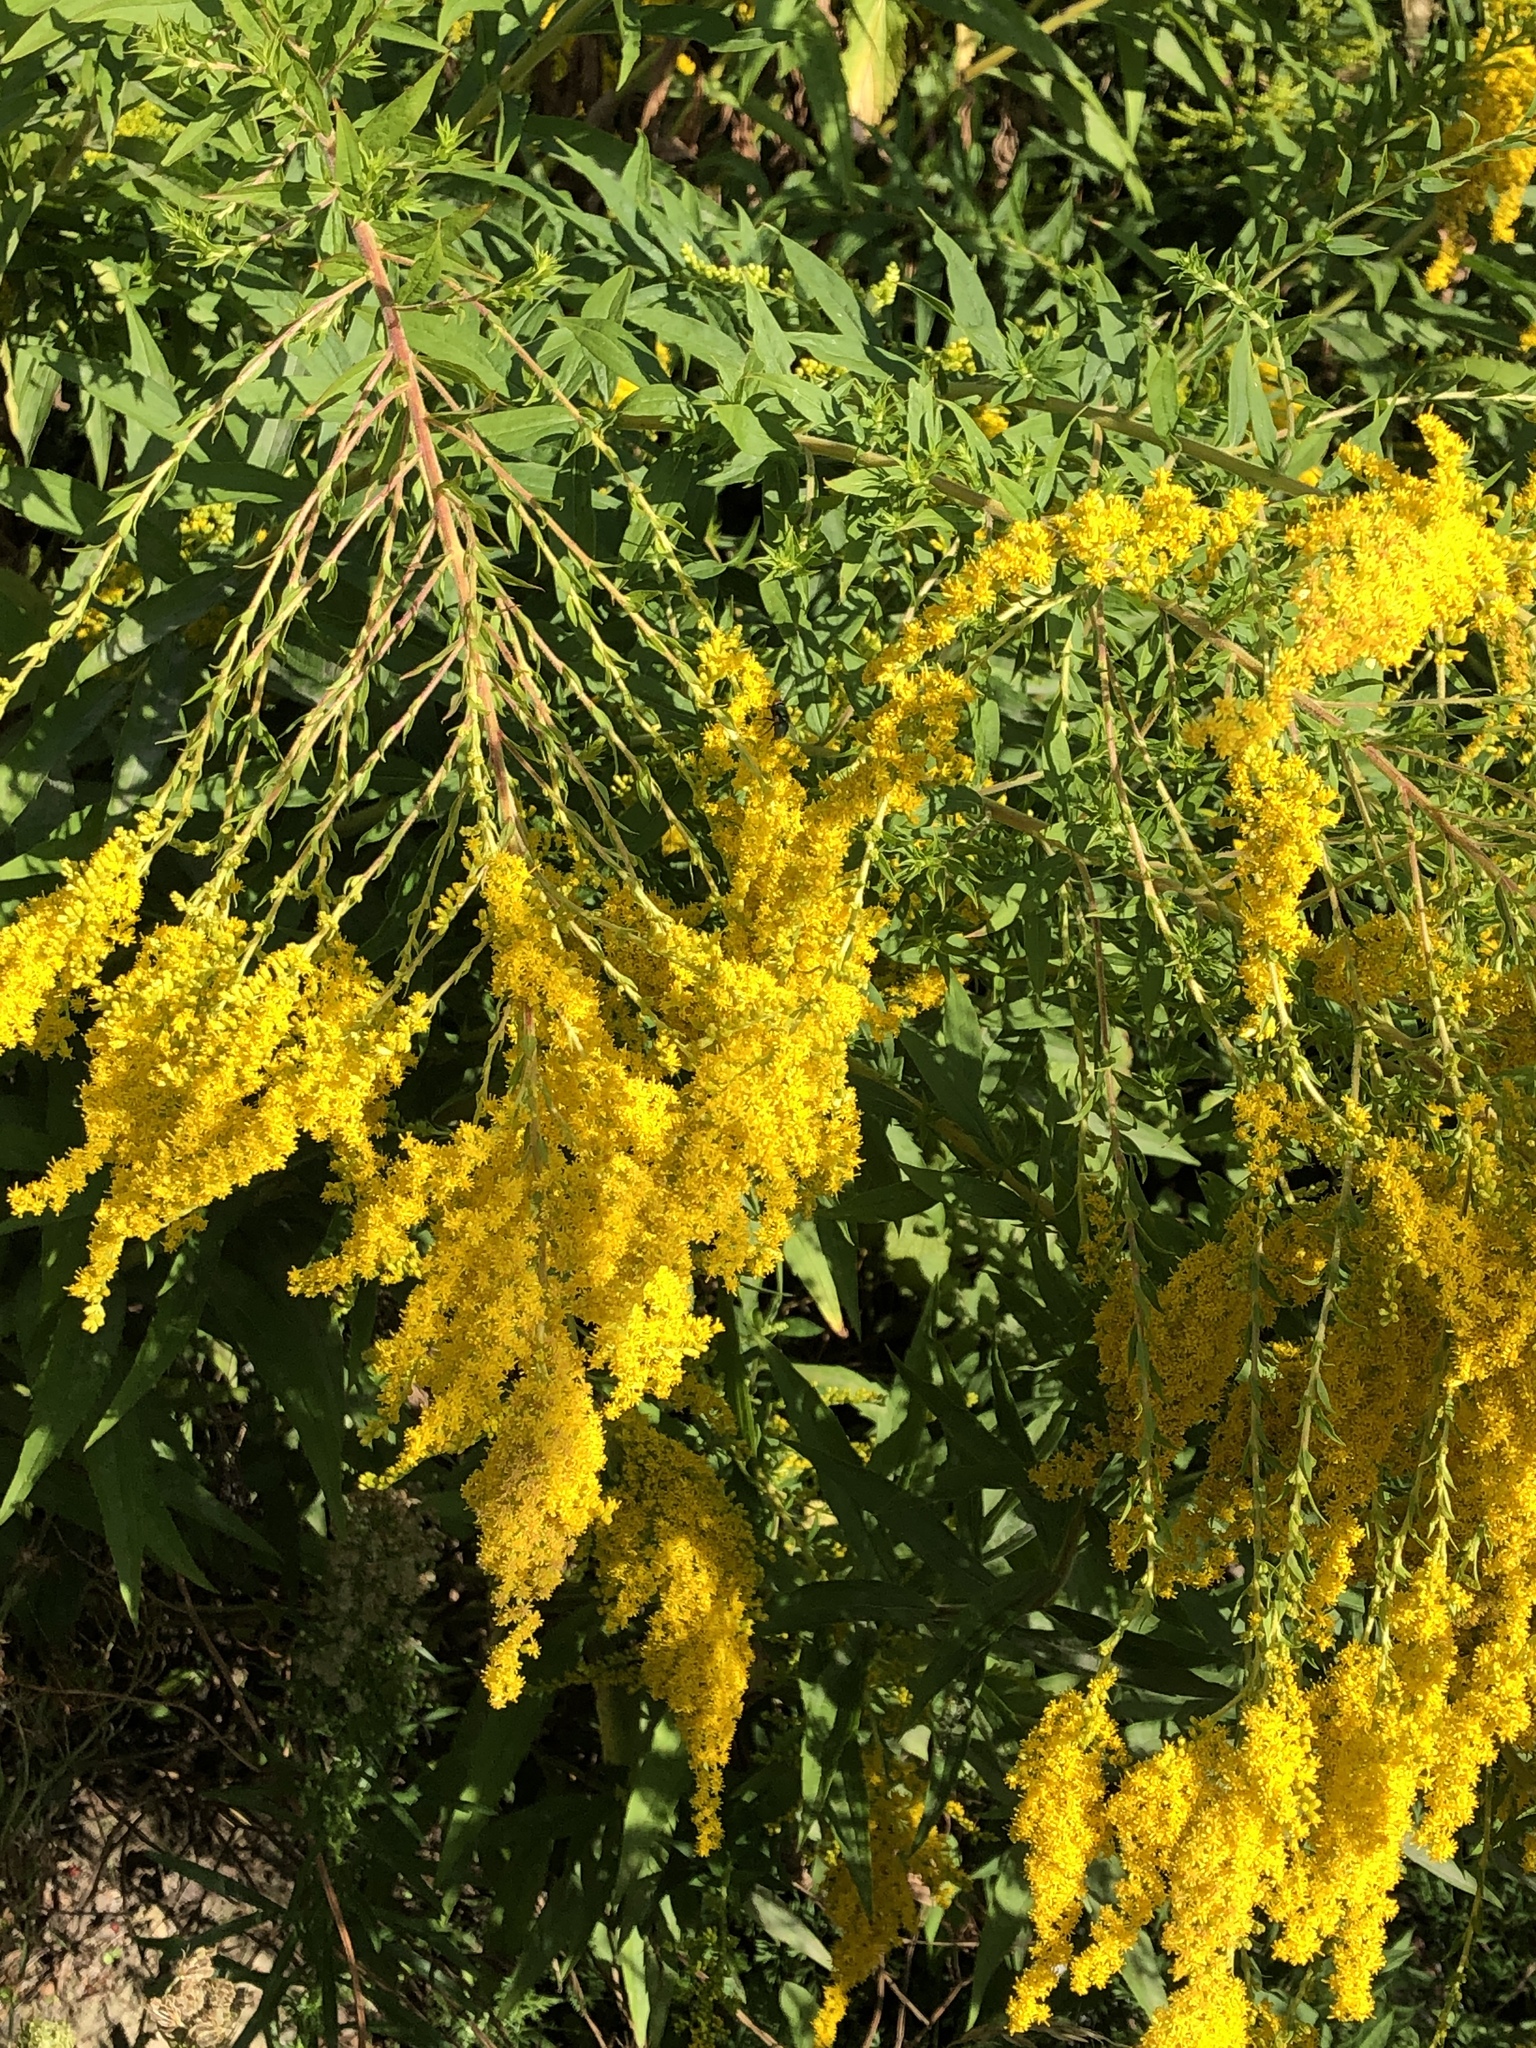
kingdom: Plantae
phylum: Tracheophyta
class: Magnoliopsida
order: Asterales
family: Asteraceae
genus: Solidago
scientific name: Solidago canadensis
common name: Canada goldenrod
